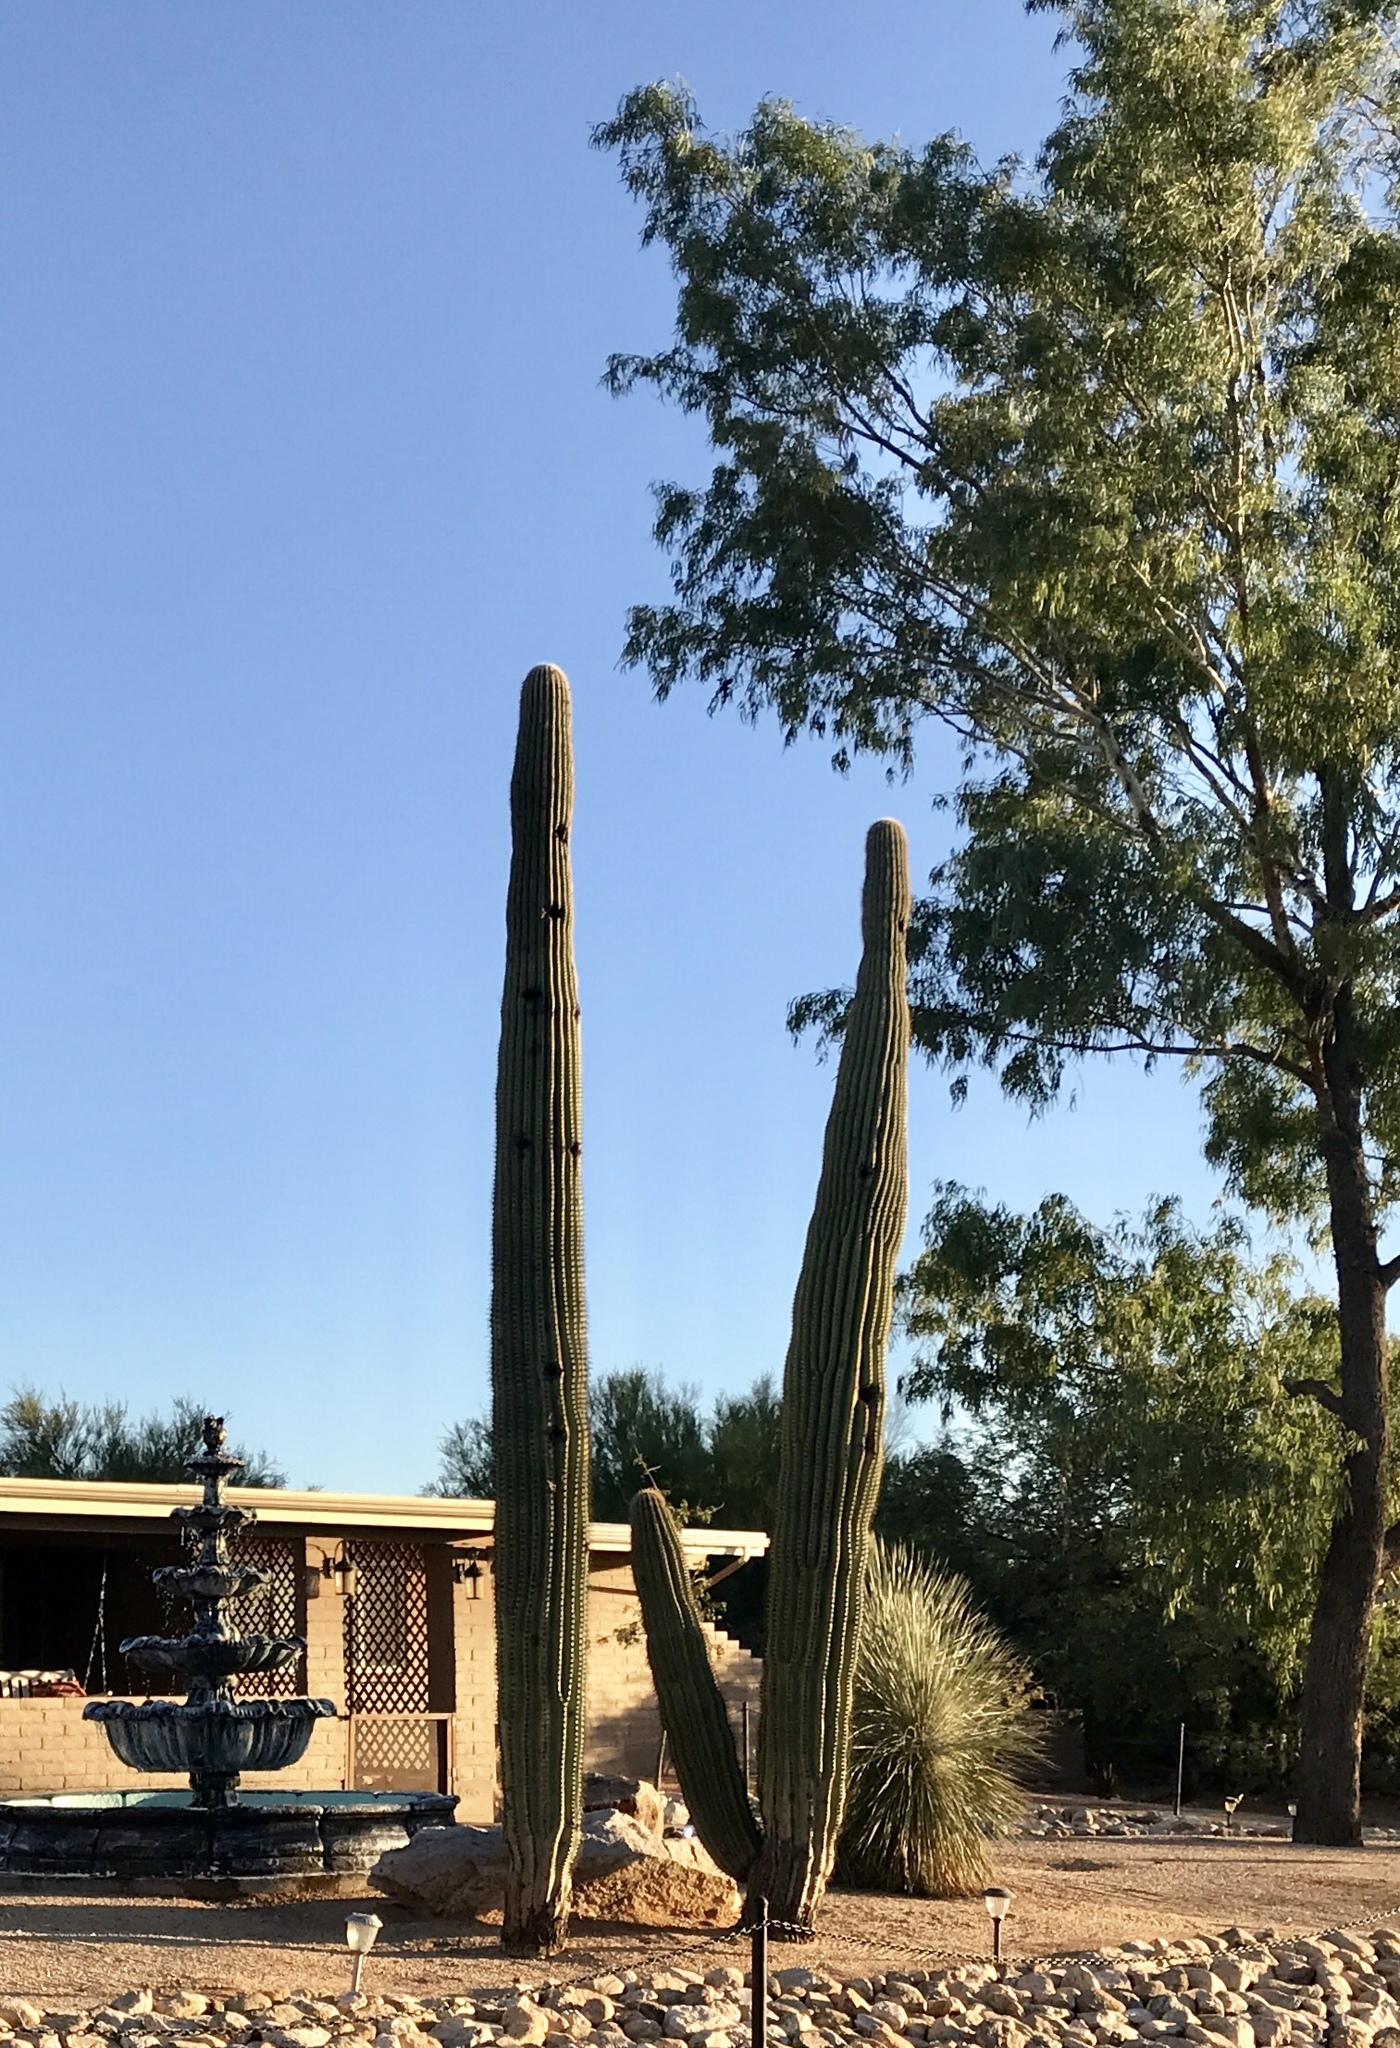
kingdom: Plantae
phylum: Tracheophyta
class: Magnoliopsida
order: Caryophyllales
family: Cactaceae
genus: Carnegiea
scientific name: Carnegiea gigantea
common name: Saguaro
